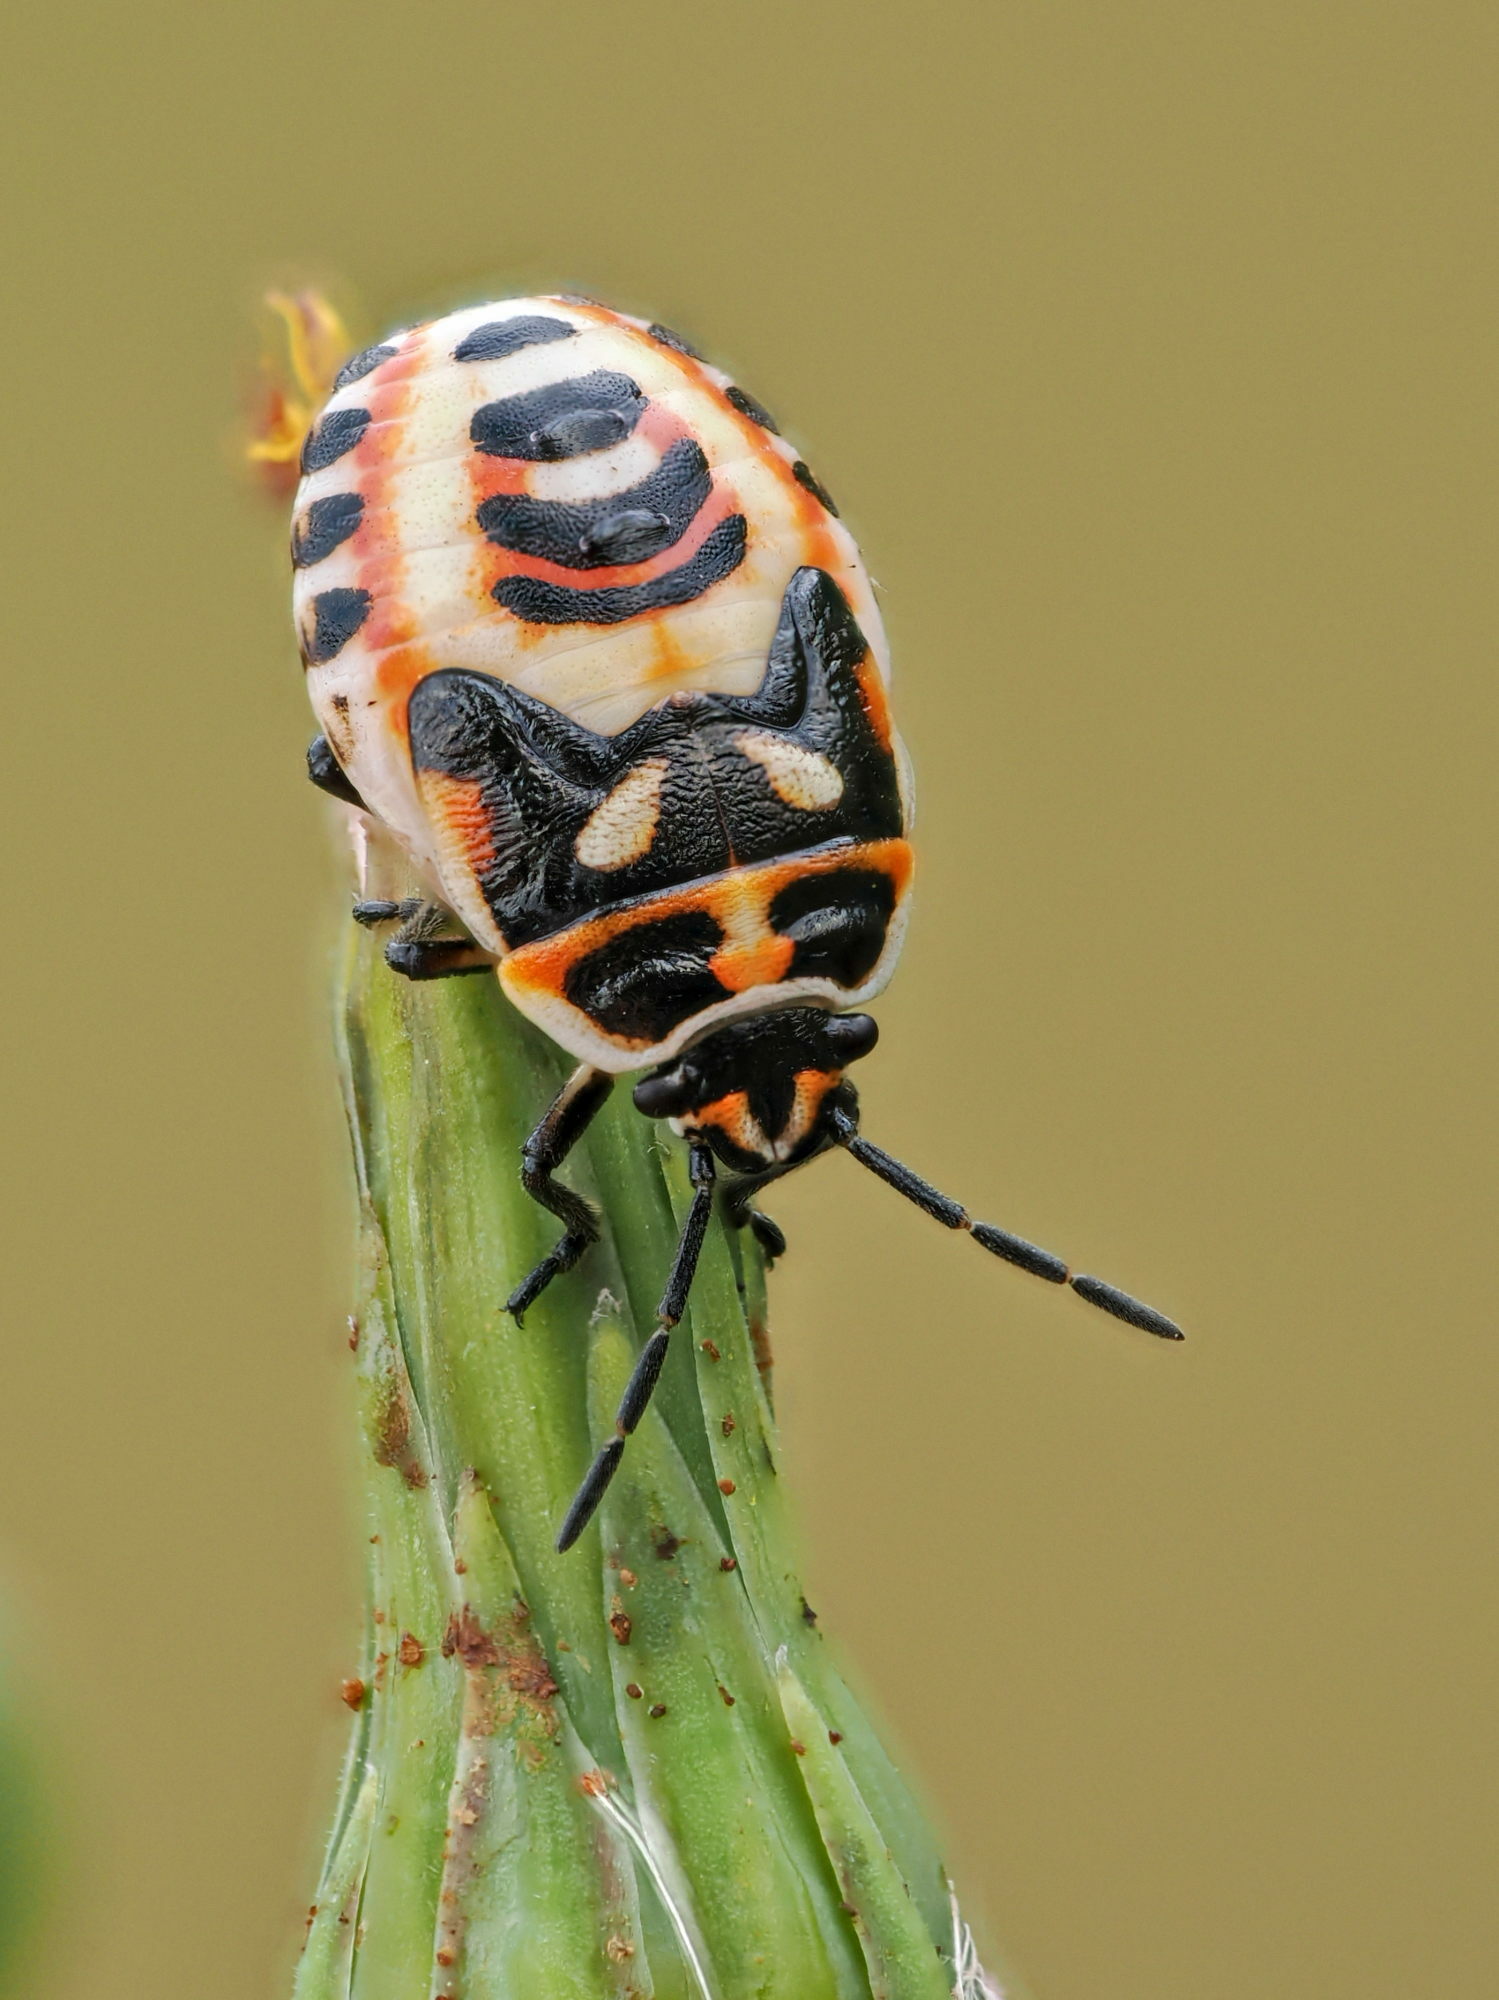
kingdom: Animalia
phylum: Arthropoda
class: Insecta
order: Hemiptera
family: Pentatomidae
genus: Eurydema
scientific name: Eurydema ornata
